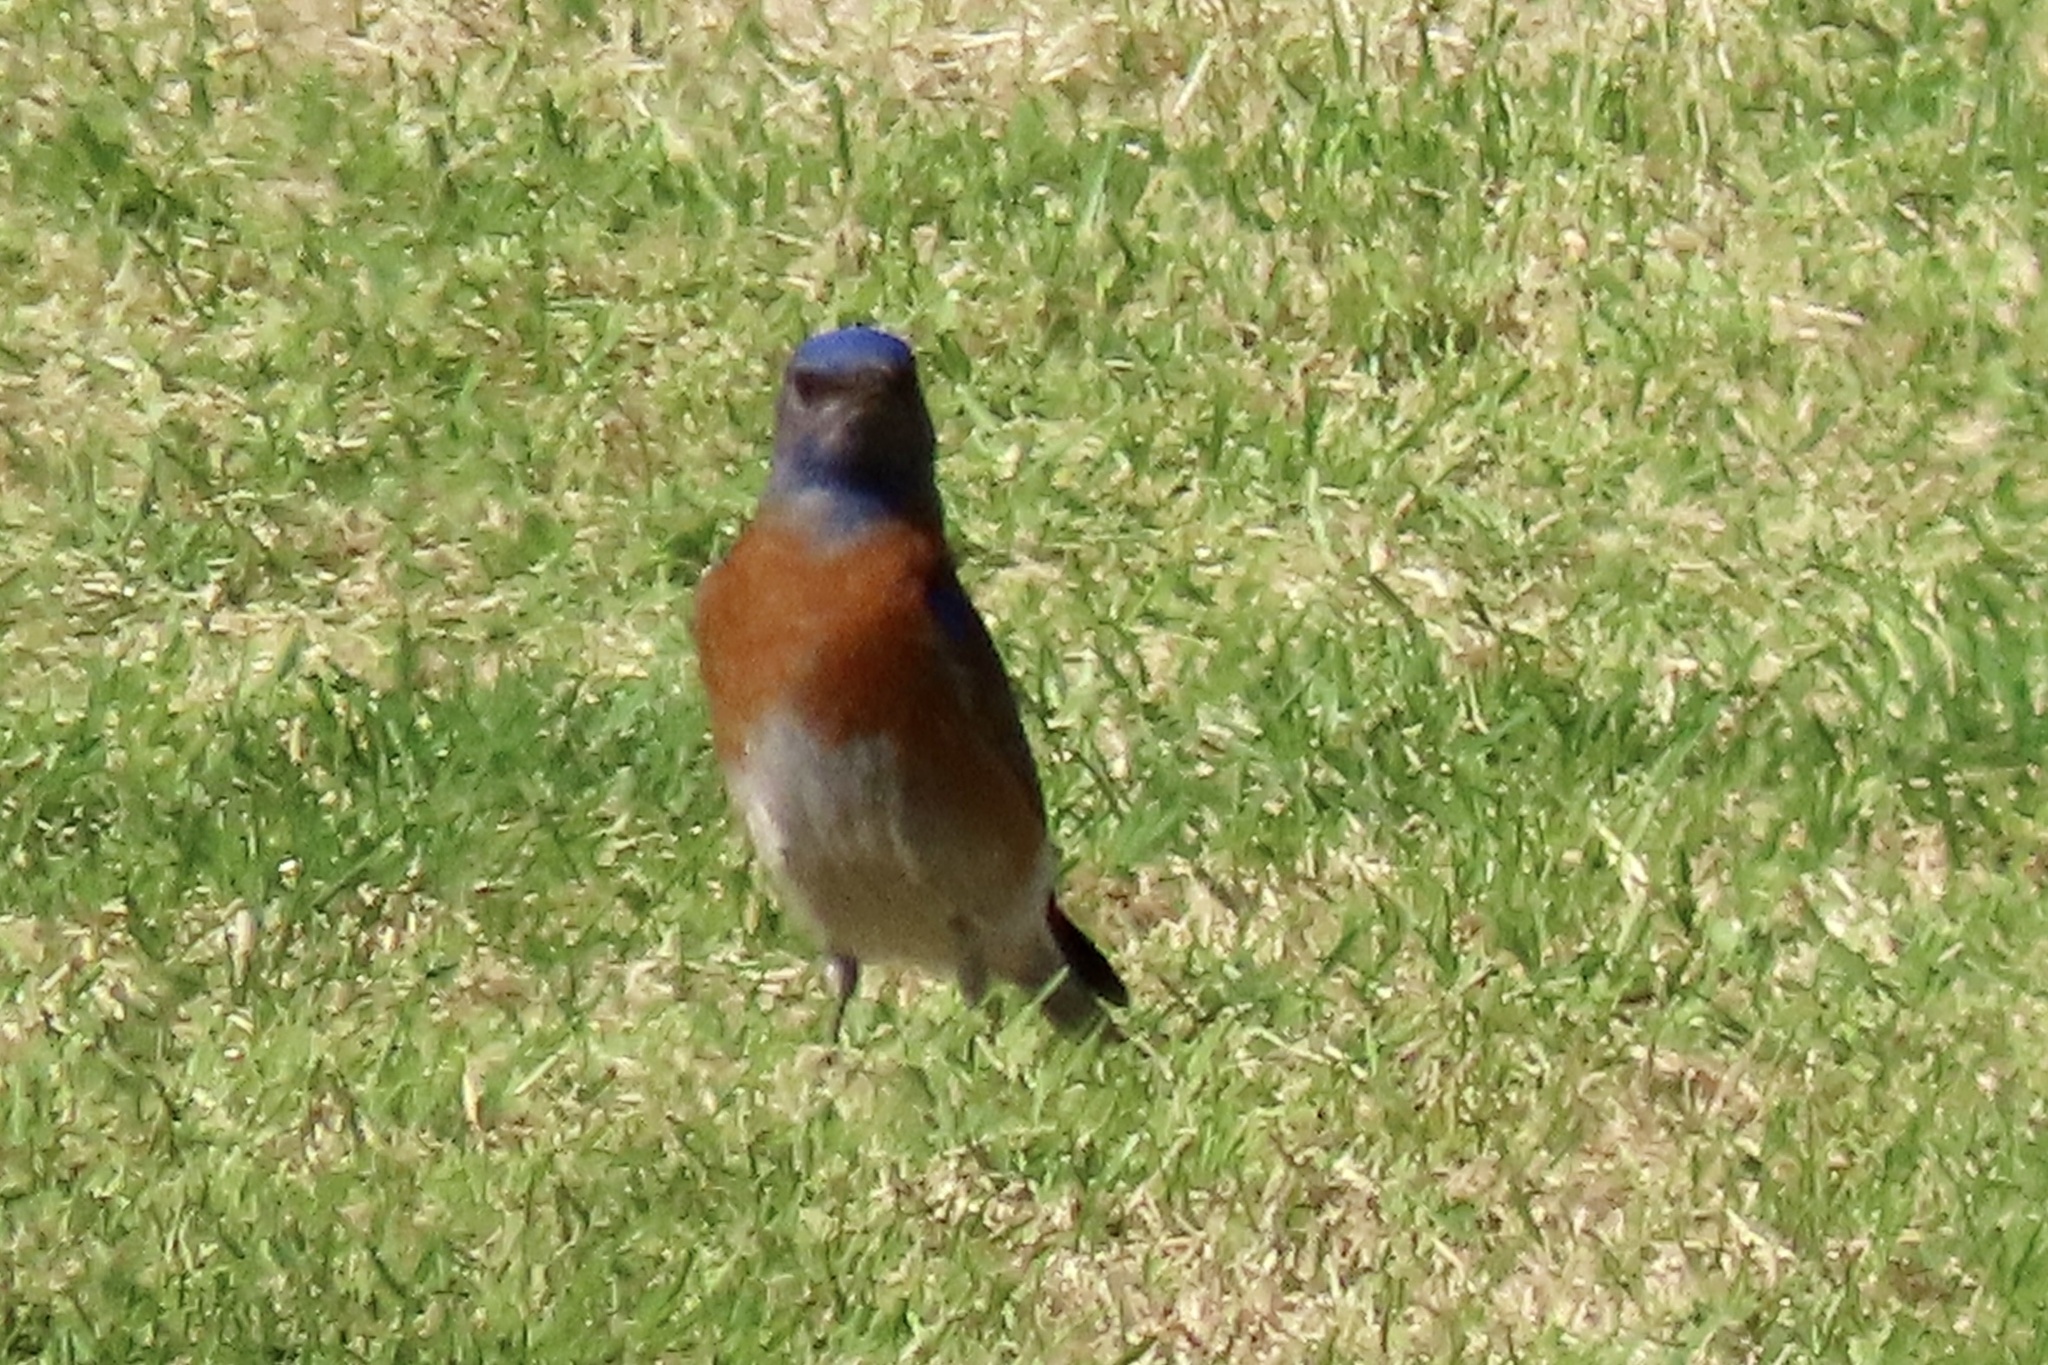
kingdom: Animalia
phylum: Chordata
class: Aves
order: Passeriformes
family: Turdidae
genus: Sialia
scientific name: Sialia mexicana
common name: Western bluebird
